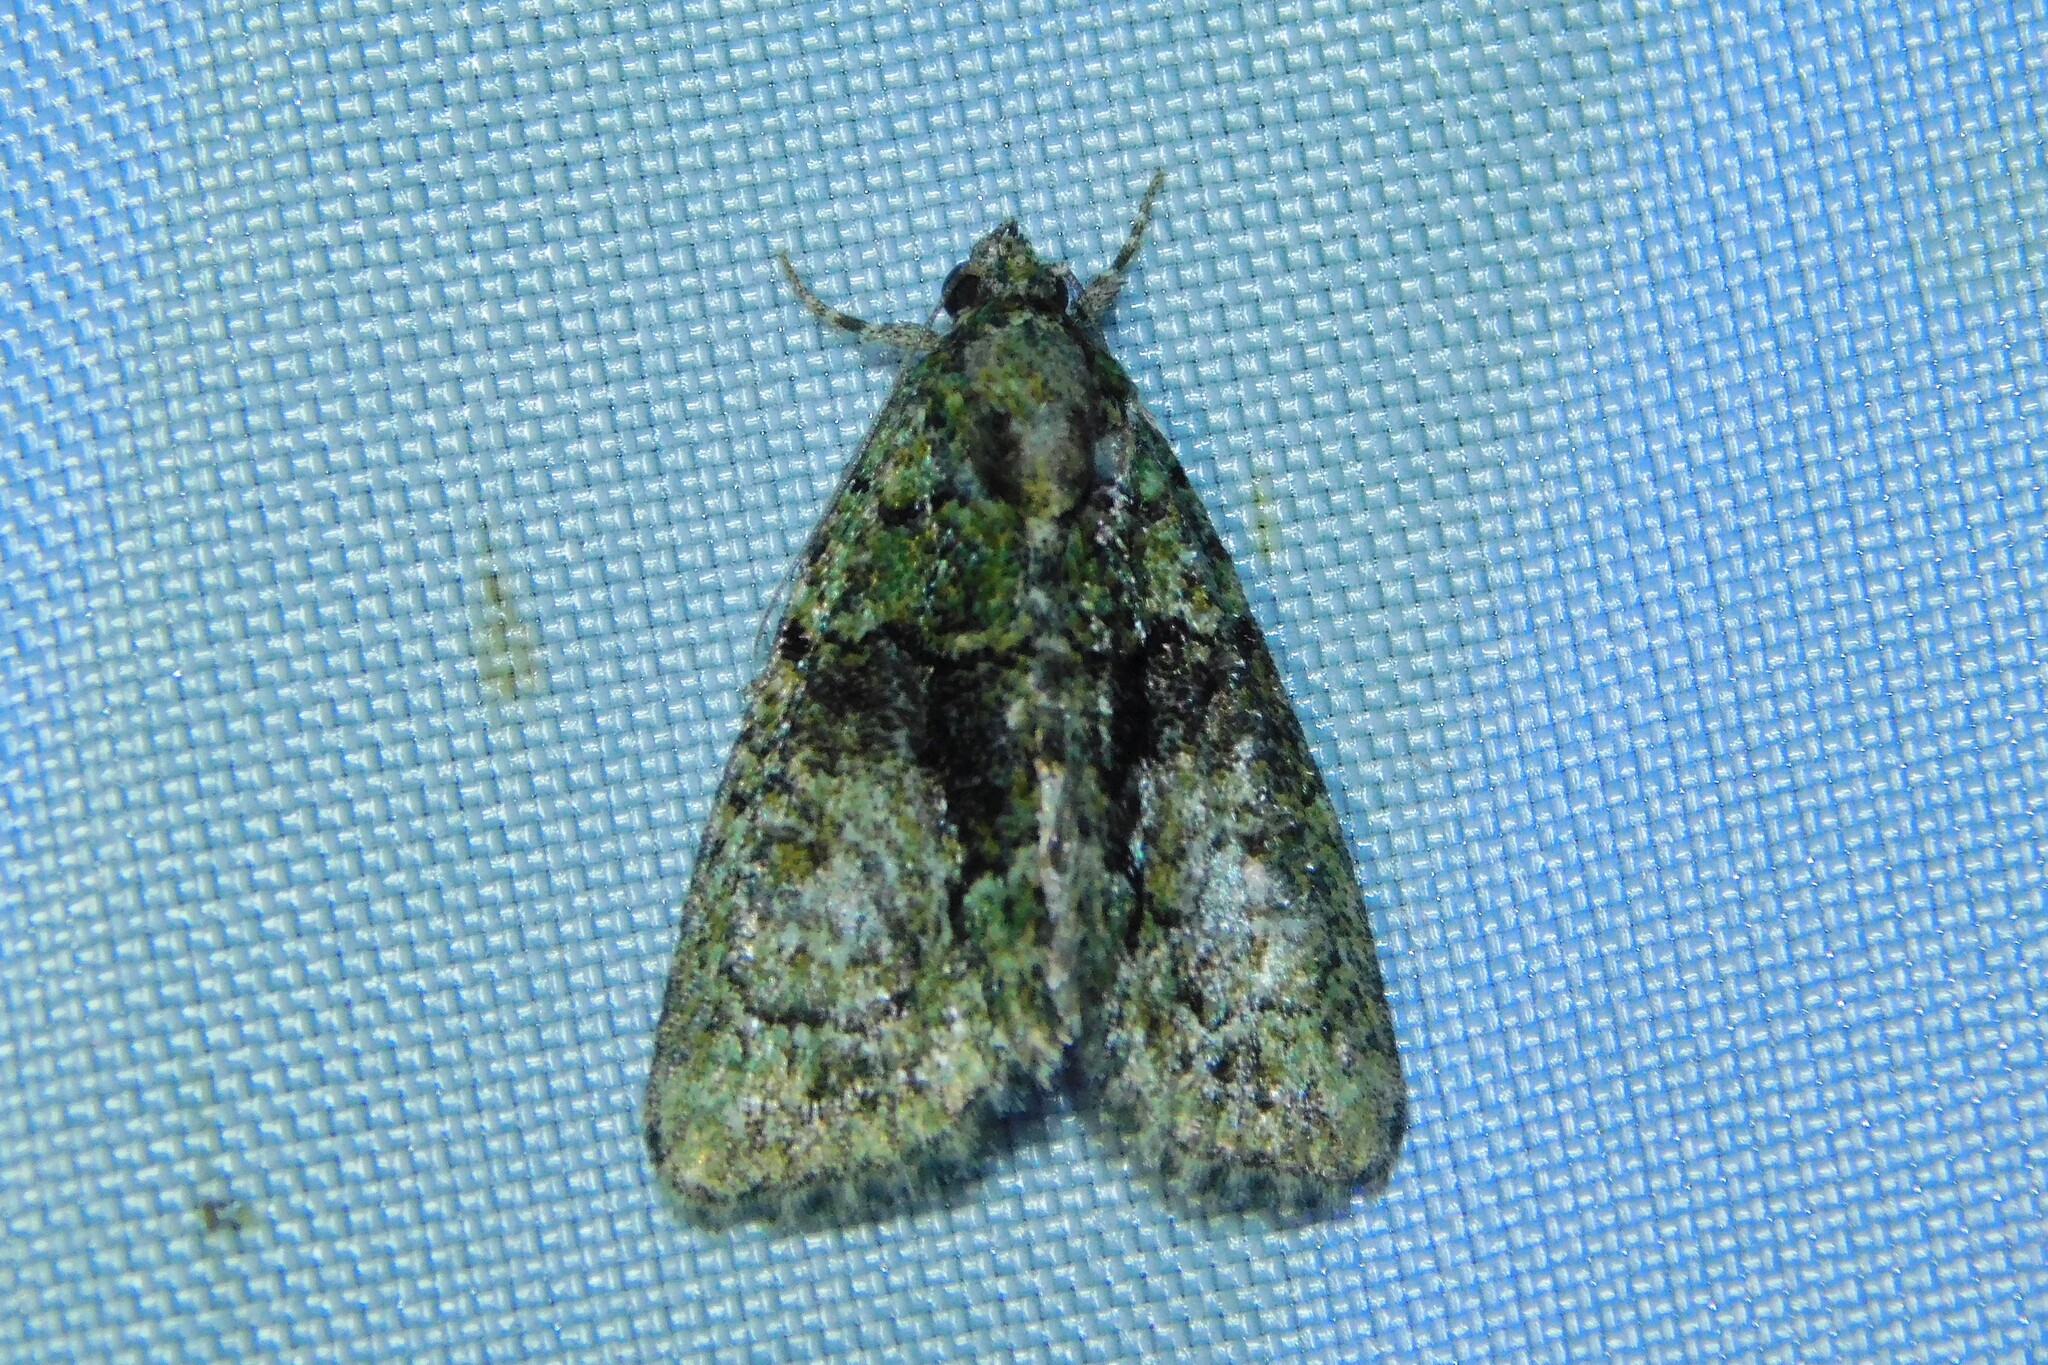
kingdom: Animalia
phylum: Arthropoda
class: Insecta
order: Lepidoptera
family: Noctuidae
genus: Cryphia
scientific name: Cryphia algae
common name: Tree-lichen beauty
